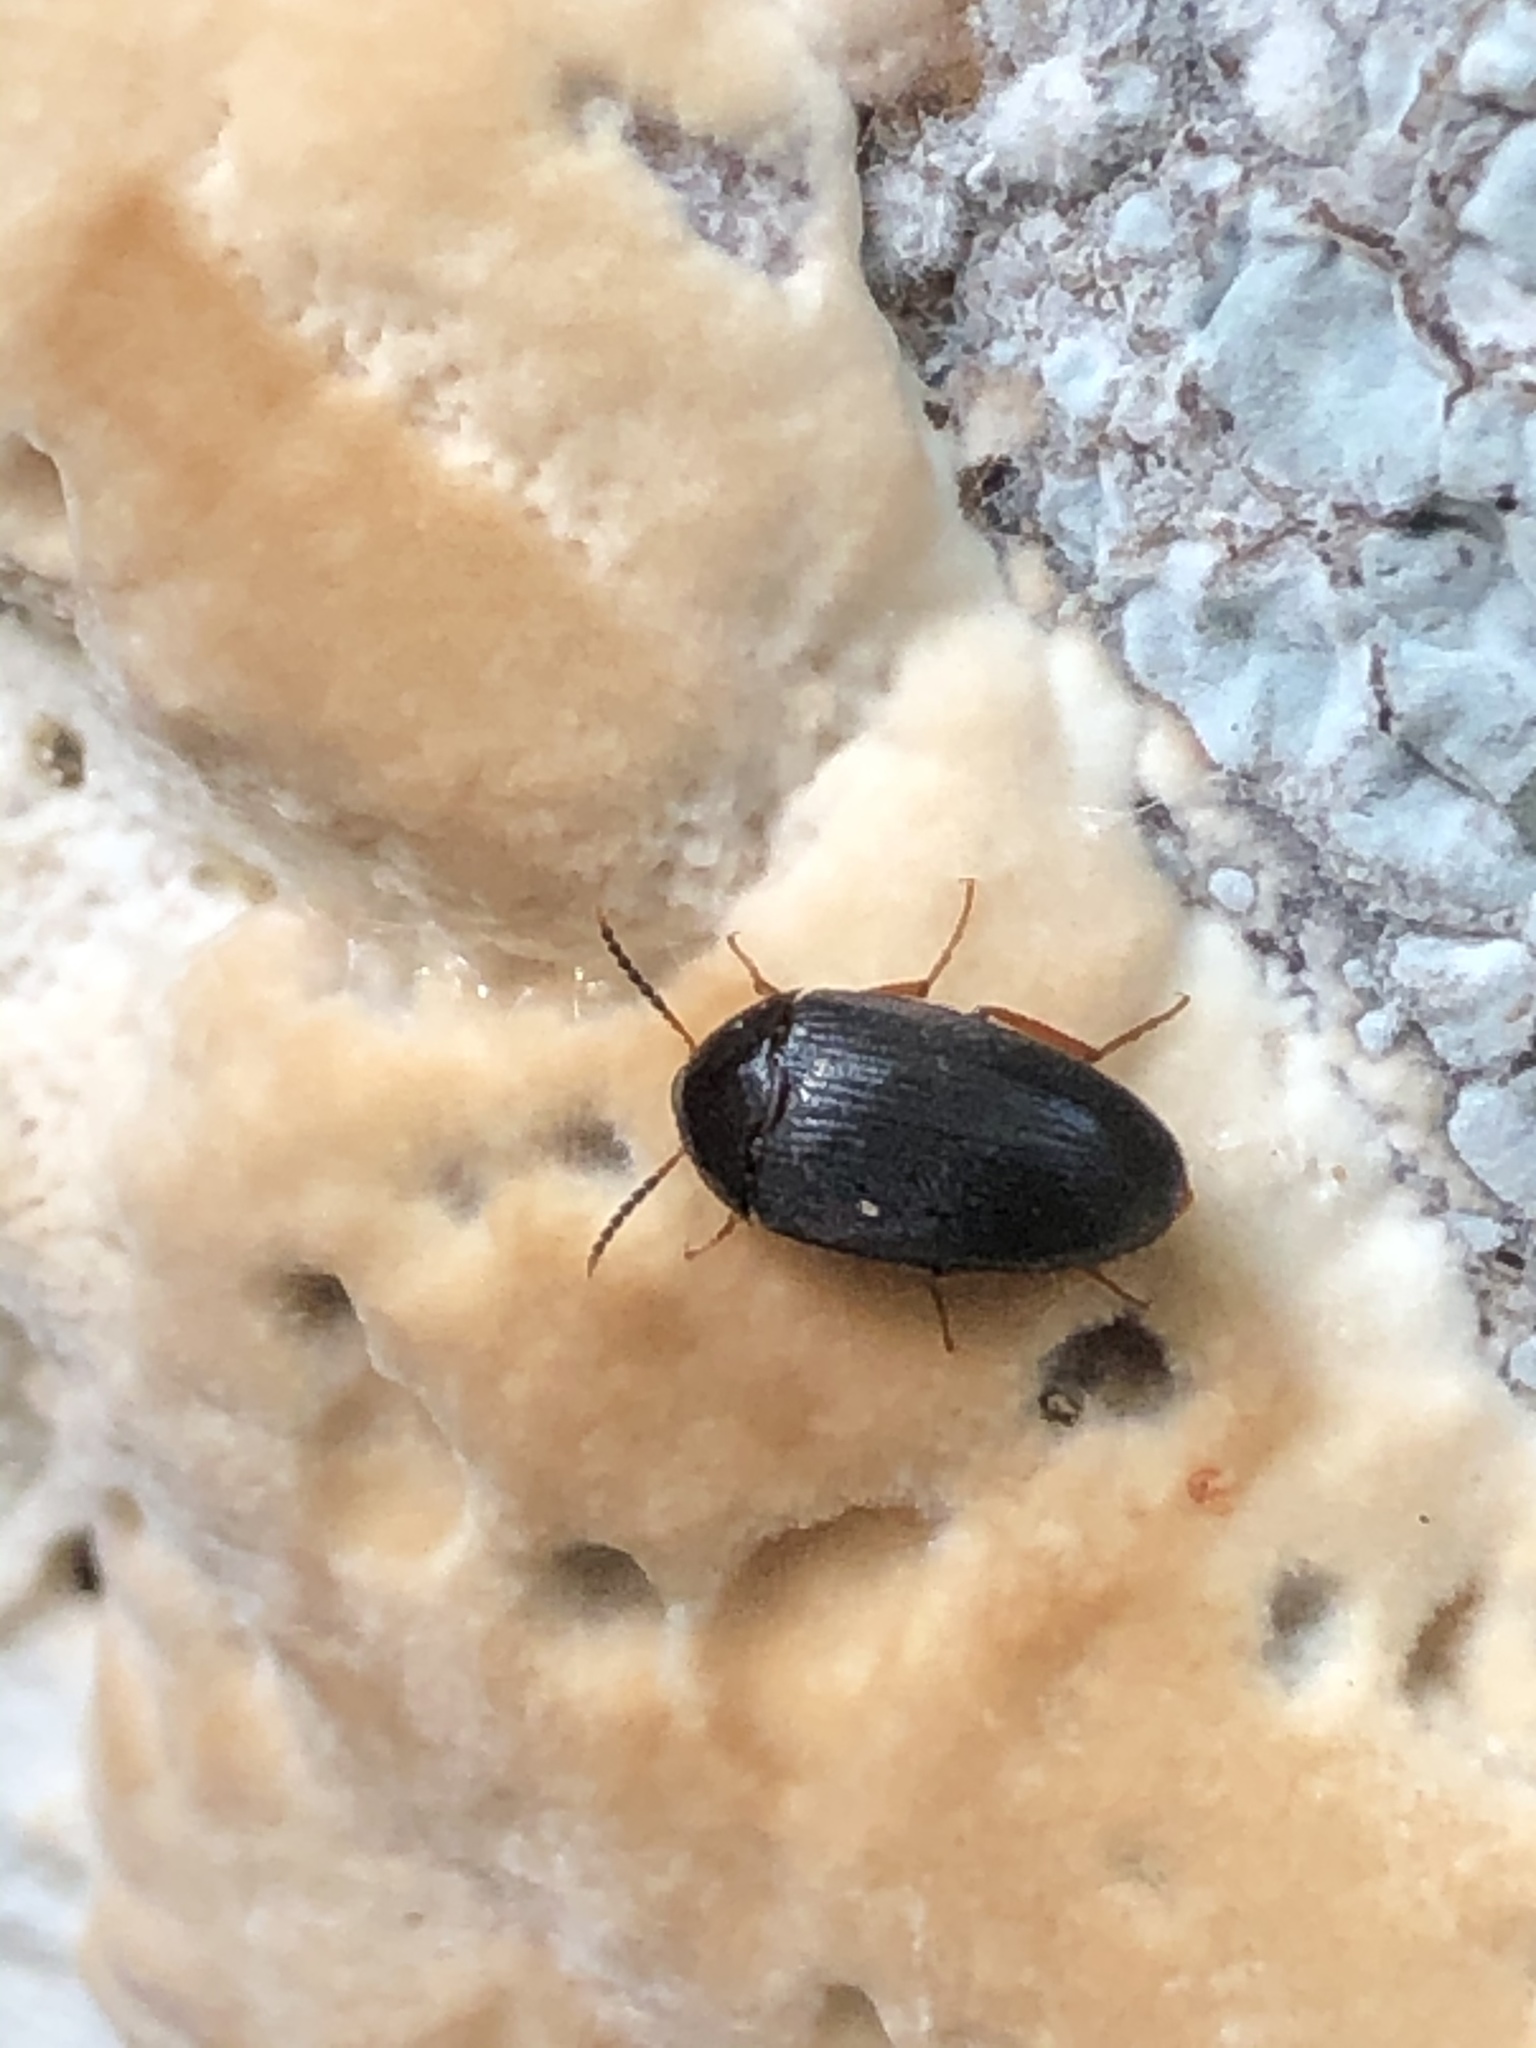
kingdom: Animalia
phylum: Arthropoda
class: Insecta
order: Coleoptera
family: Tetratomidae
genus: Eustrophopsis
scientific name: Eustrophopsis bicolor
